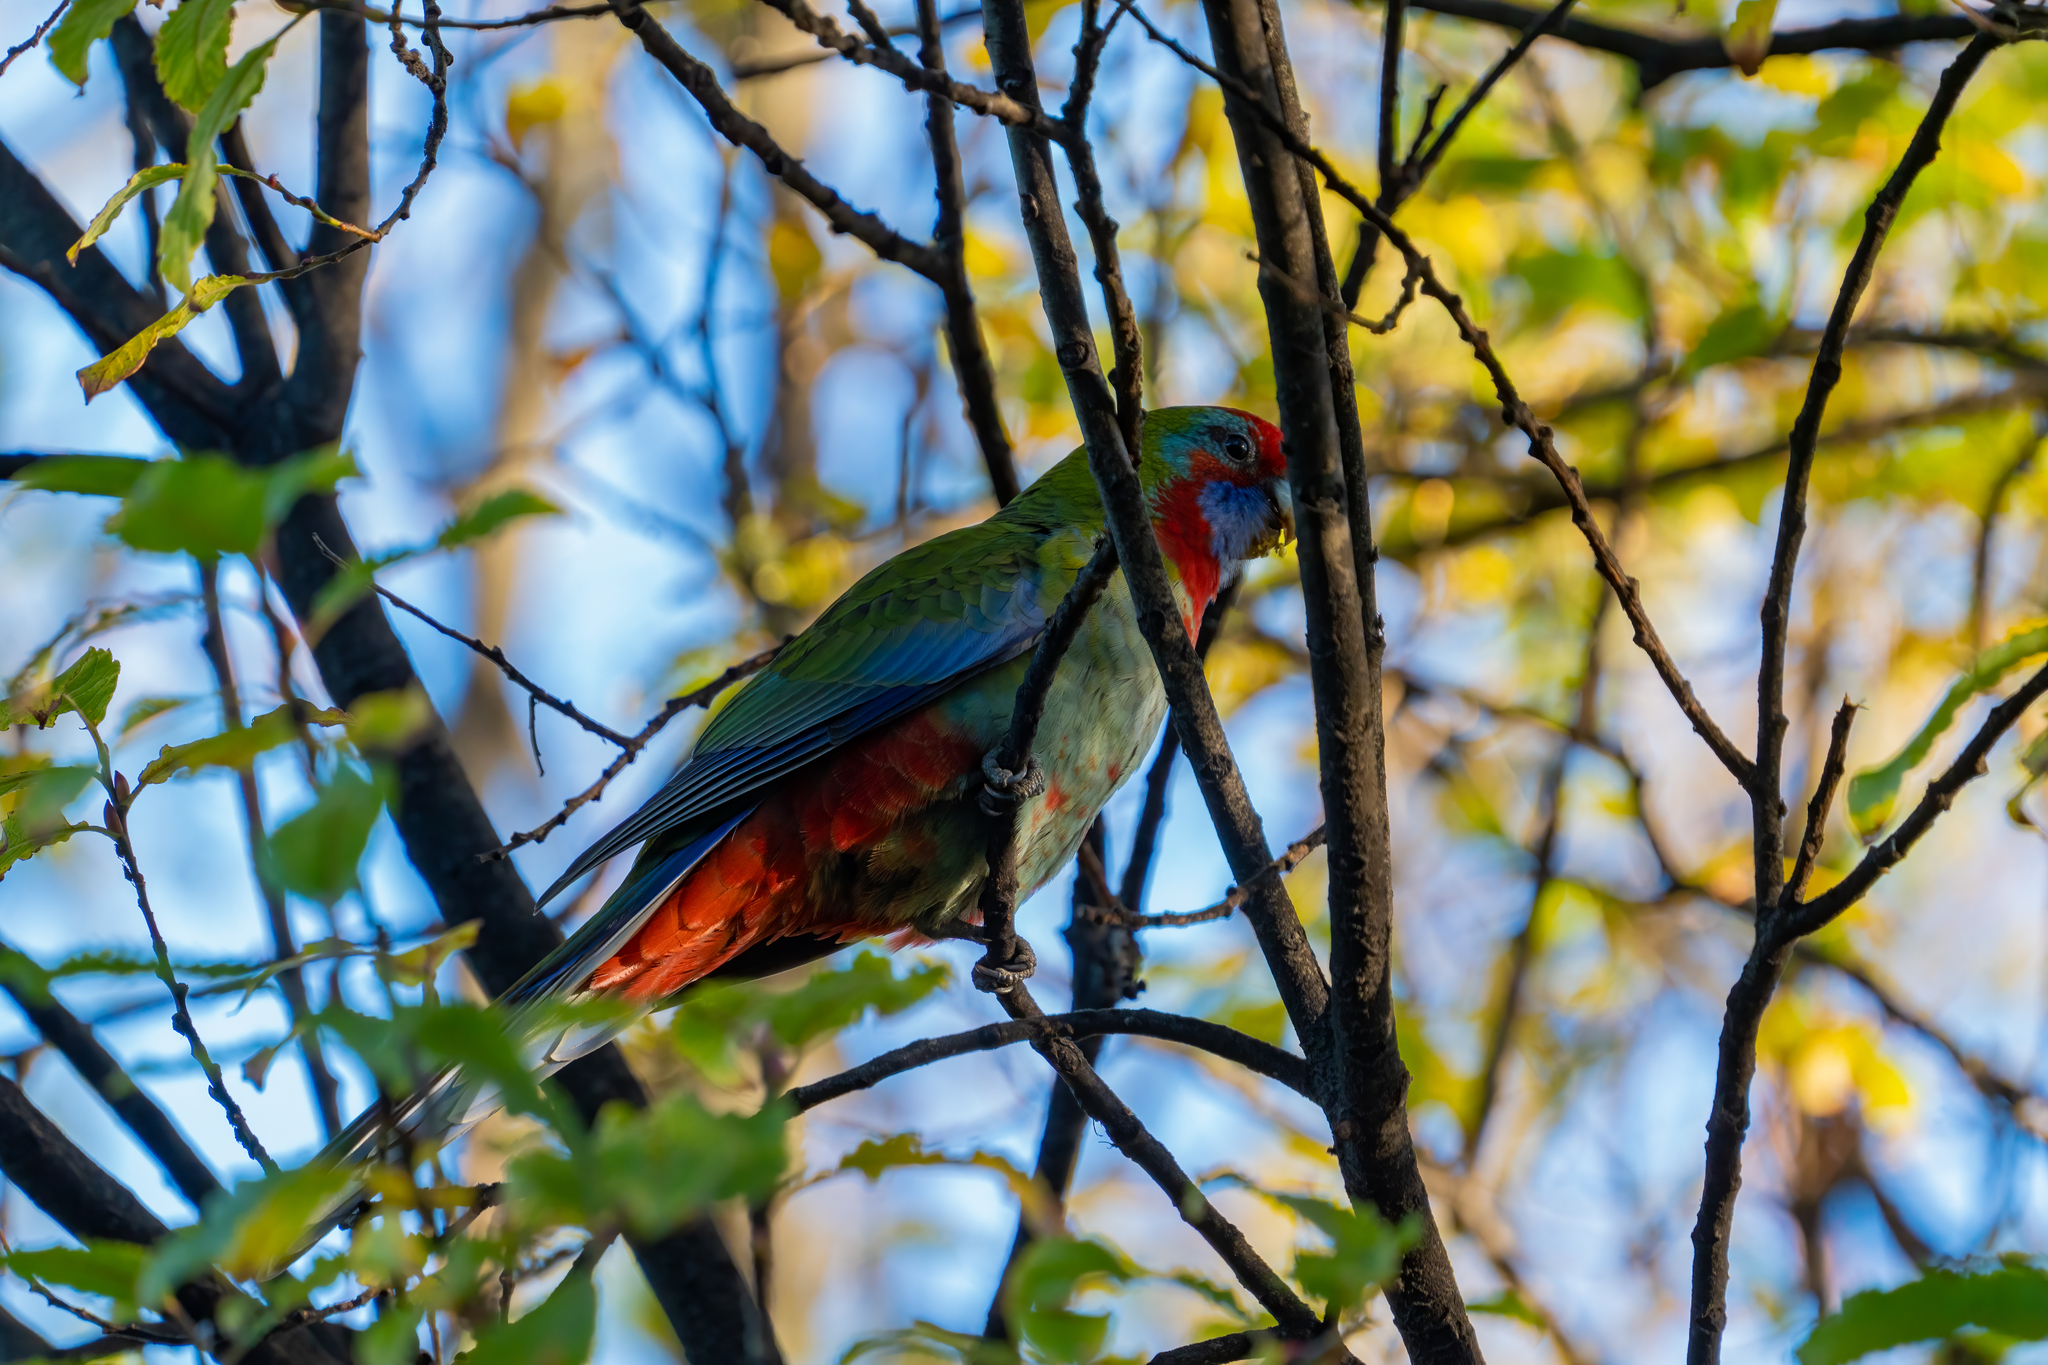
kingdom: Animalia
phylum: Chordata
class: Aves
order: Psittaciformes
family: Psittacidae
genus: Platycercus
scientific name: Platycercus elegans
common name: Crimson rosella
